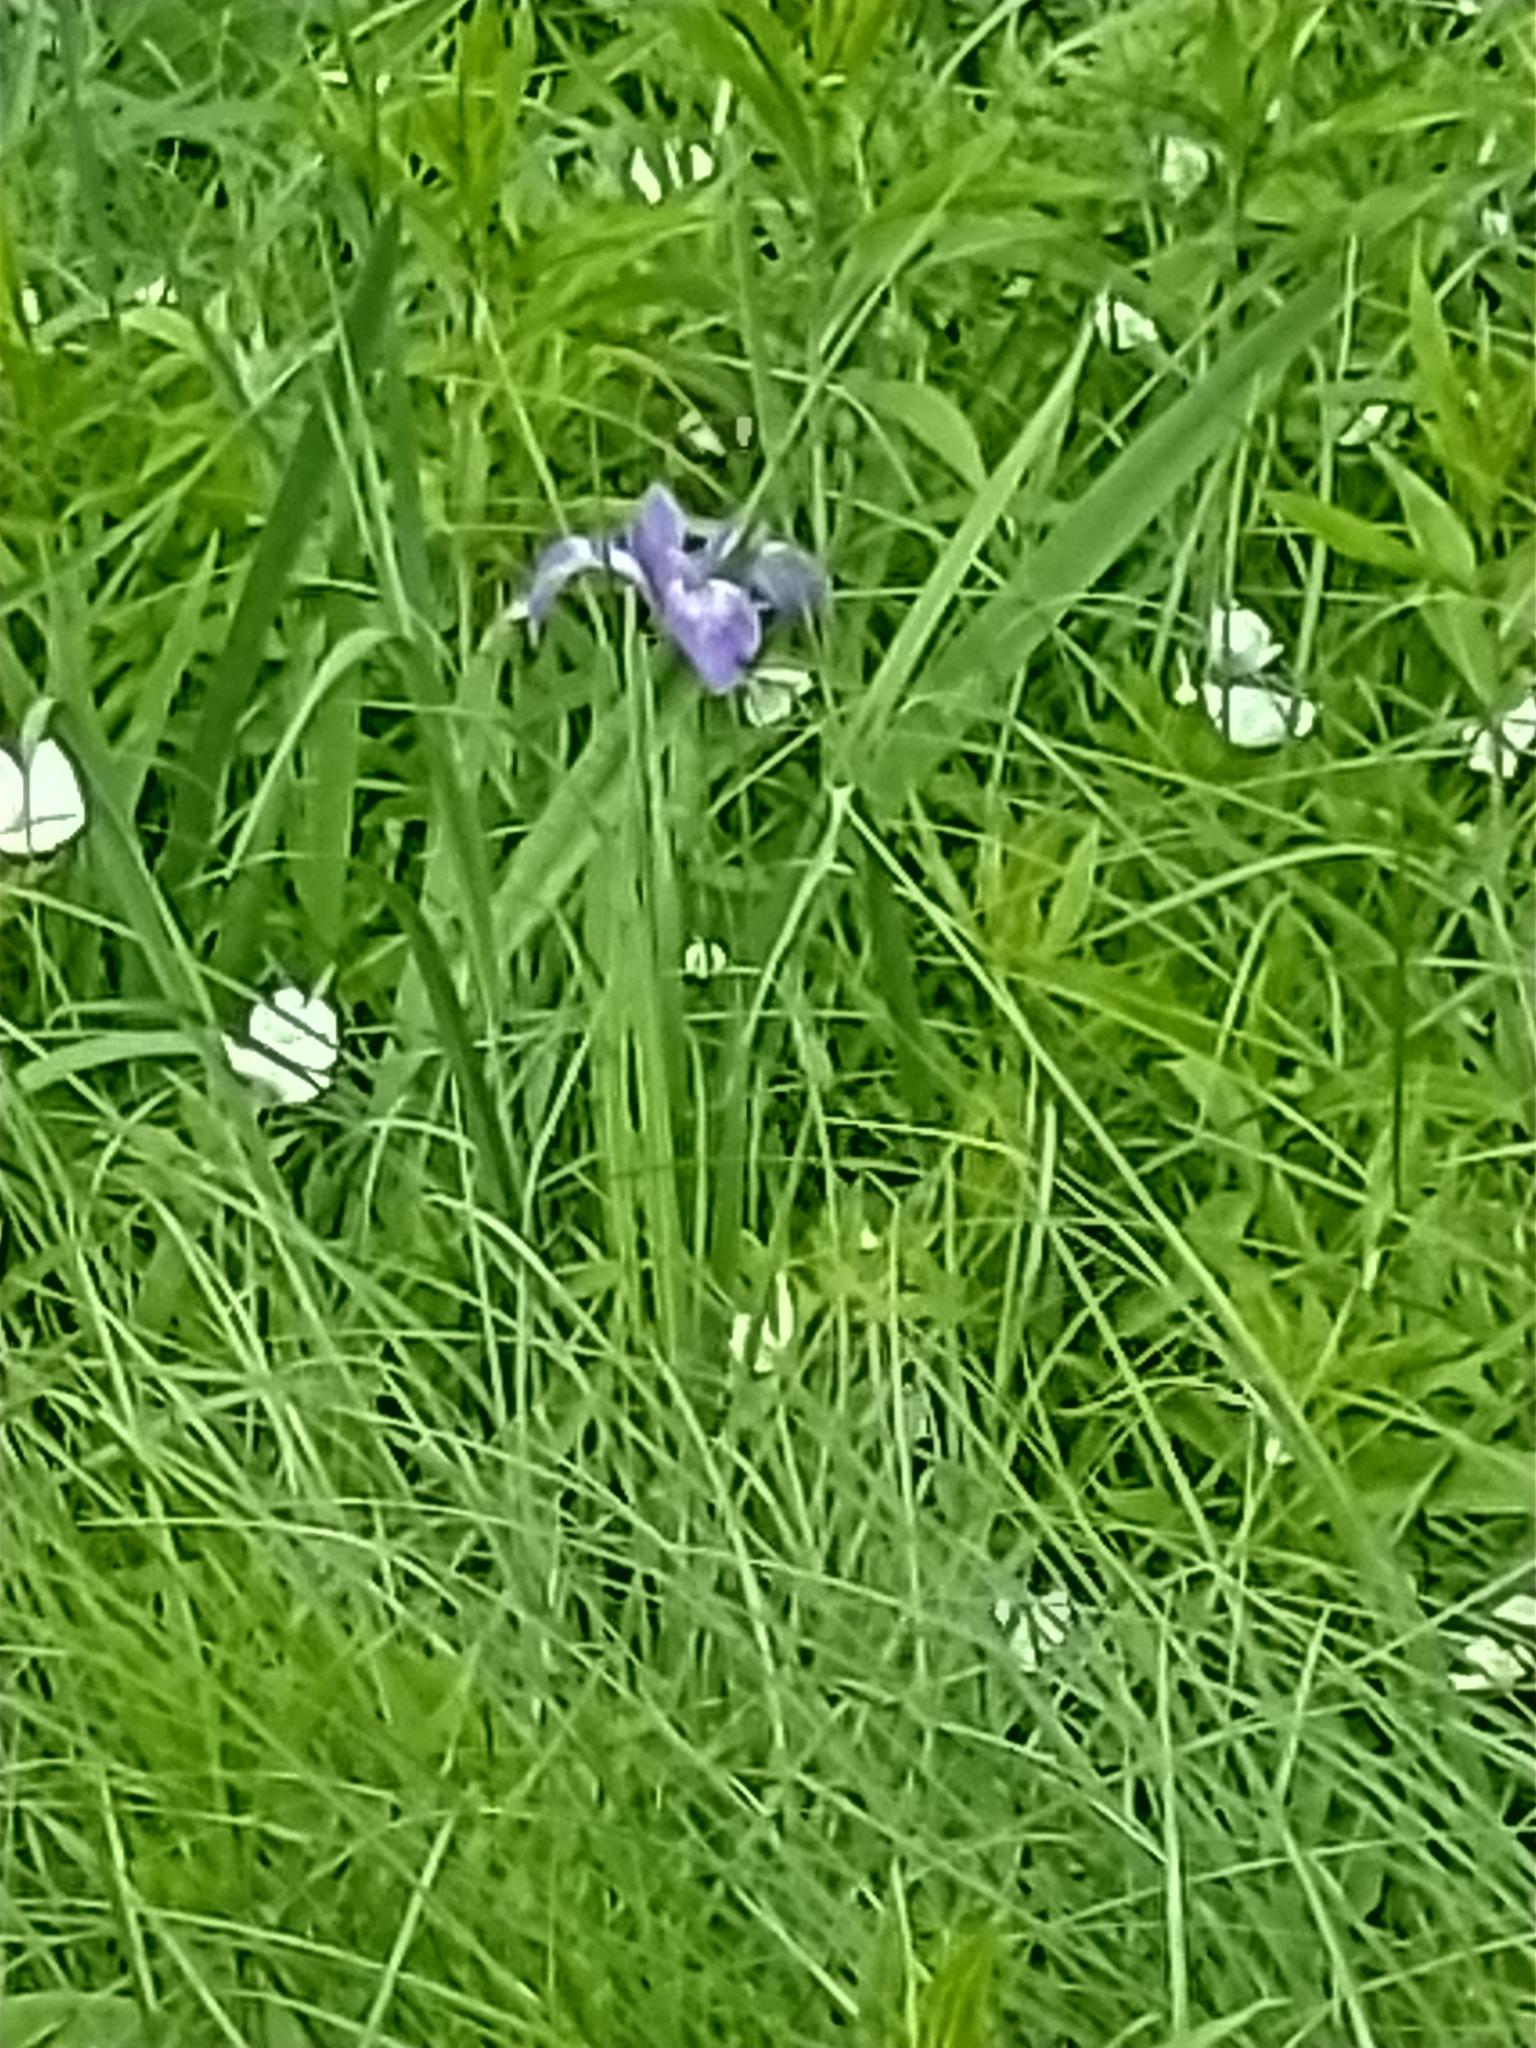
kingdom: Plantae
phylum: Tracheophyta
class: Liliopsida
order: Asparagales
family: Iridaceae
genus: Iris
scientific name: Iris versicolor
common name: Purple iris
